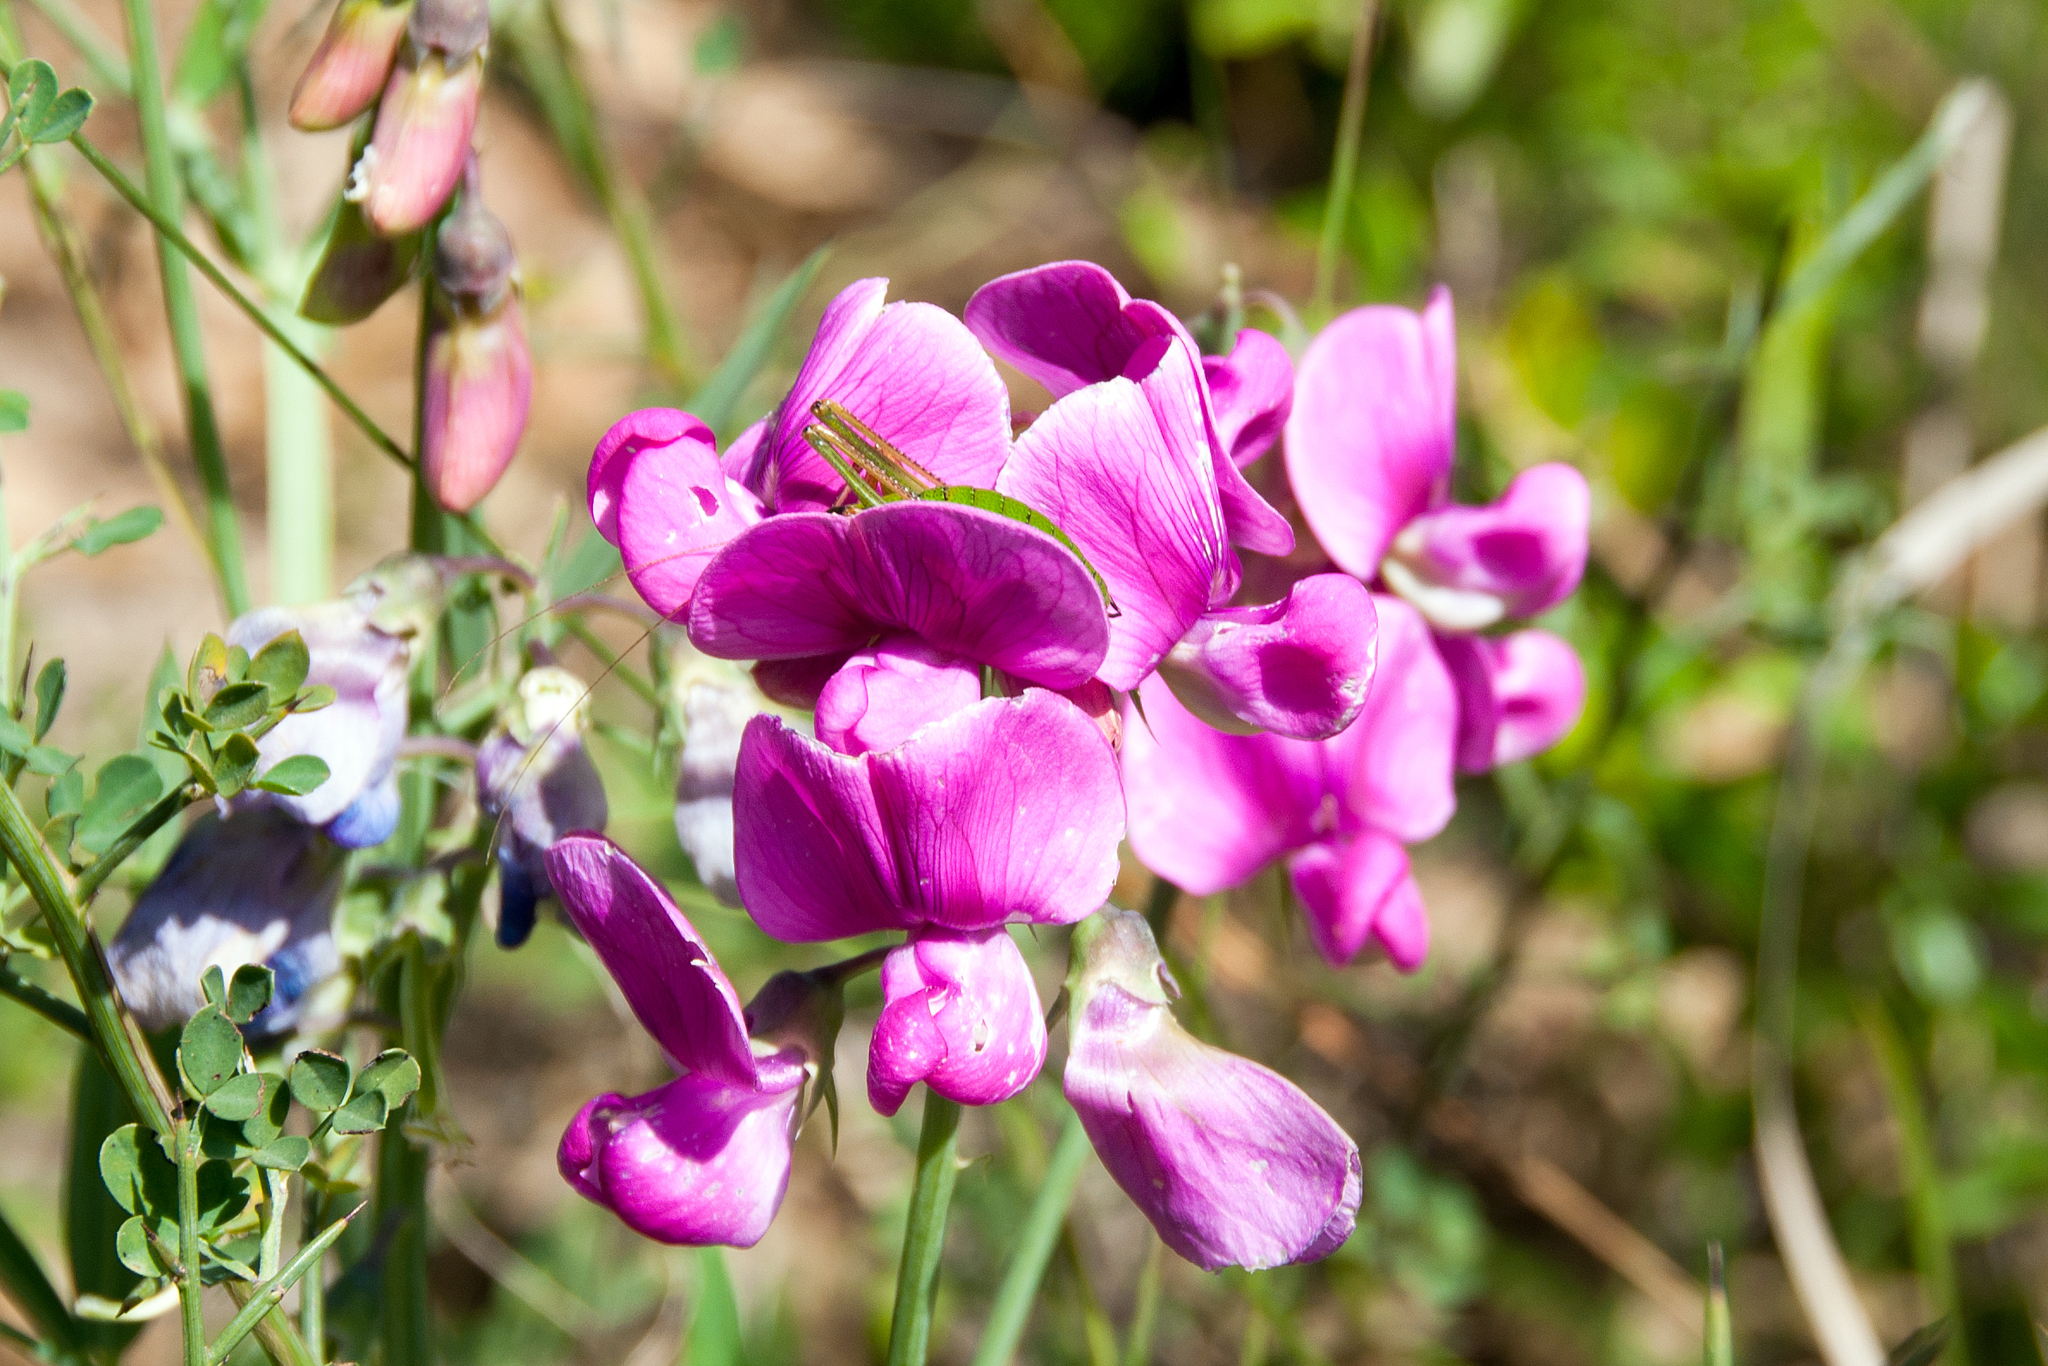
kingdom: Plantae
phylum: Tracheophyta
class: Magnoliopsida
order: Fabales
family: Fabaceae
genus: Lathyrus
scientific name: Lathyrus latifolius
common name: Perennial pea
